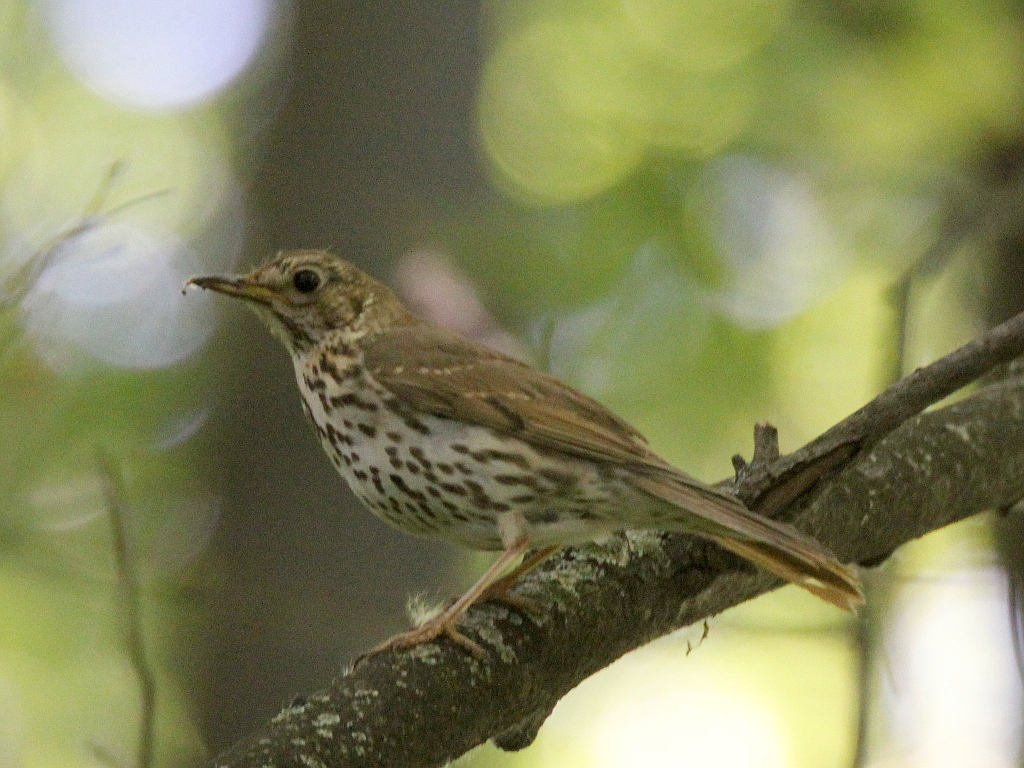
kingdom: Animalia
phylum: Chordata
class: Aves
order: Passeriformes
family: Turdidae
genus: Turdus
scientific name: Turdus philomelos
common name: Song thrush
